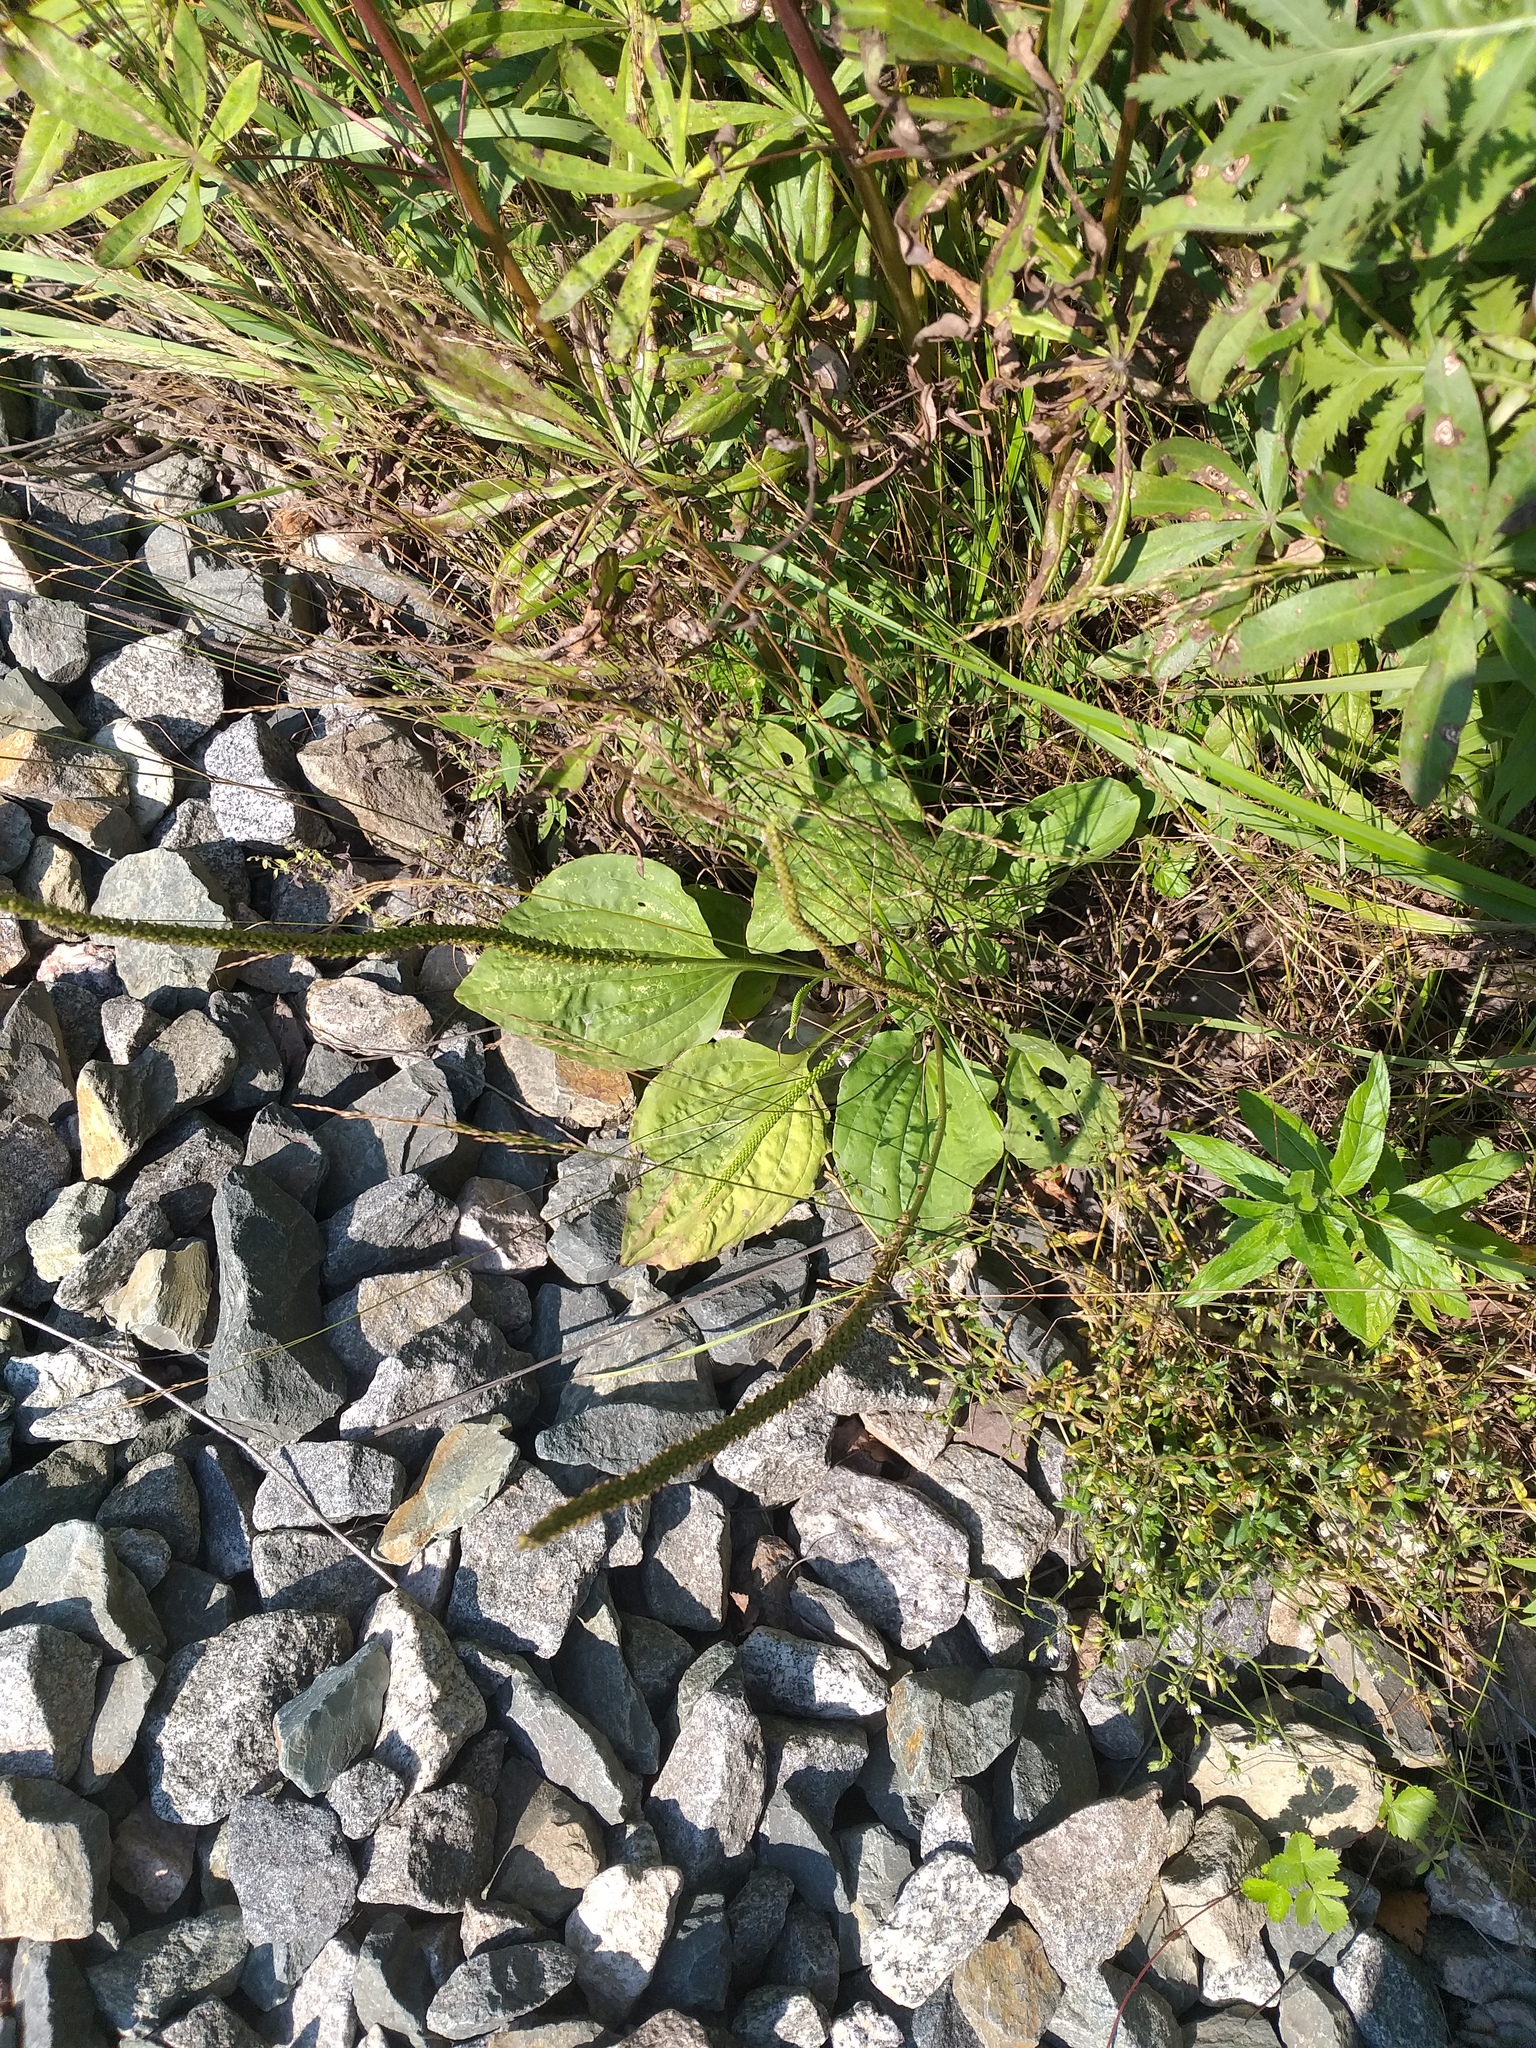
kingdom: Plantae
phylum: Tracheophyta
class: Magnoliopsida
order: Lamiales
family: Plantaginaceae
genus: Plantago
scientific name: Plantago major
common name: Common plantain
